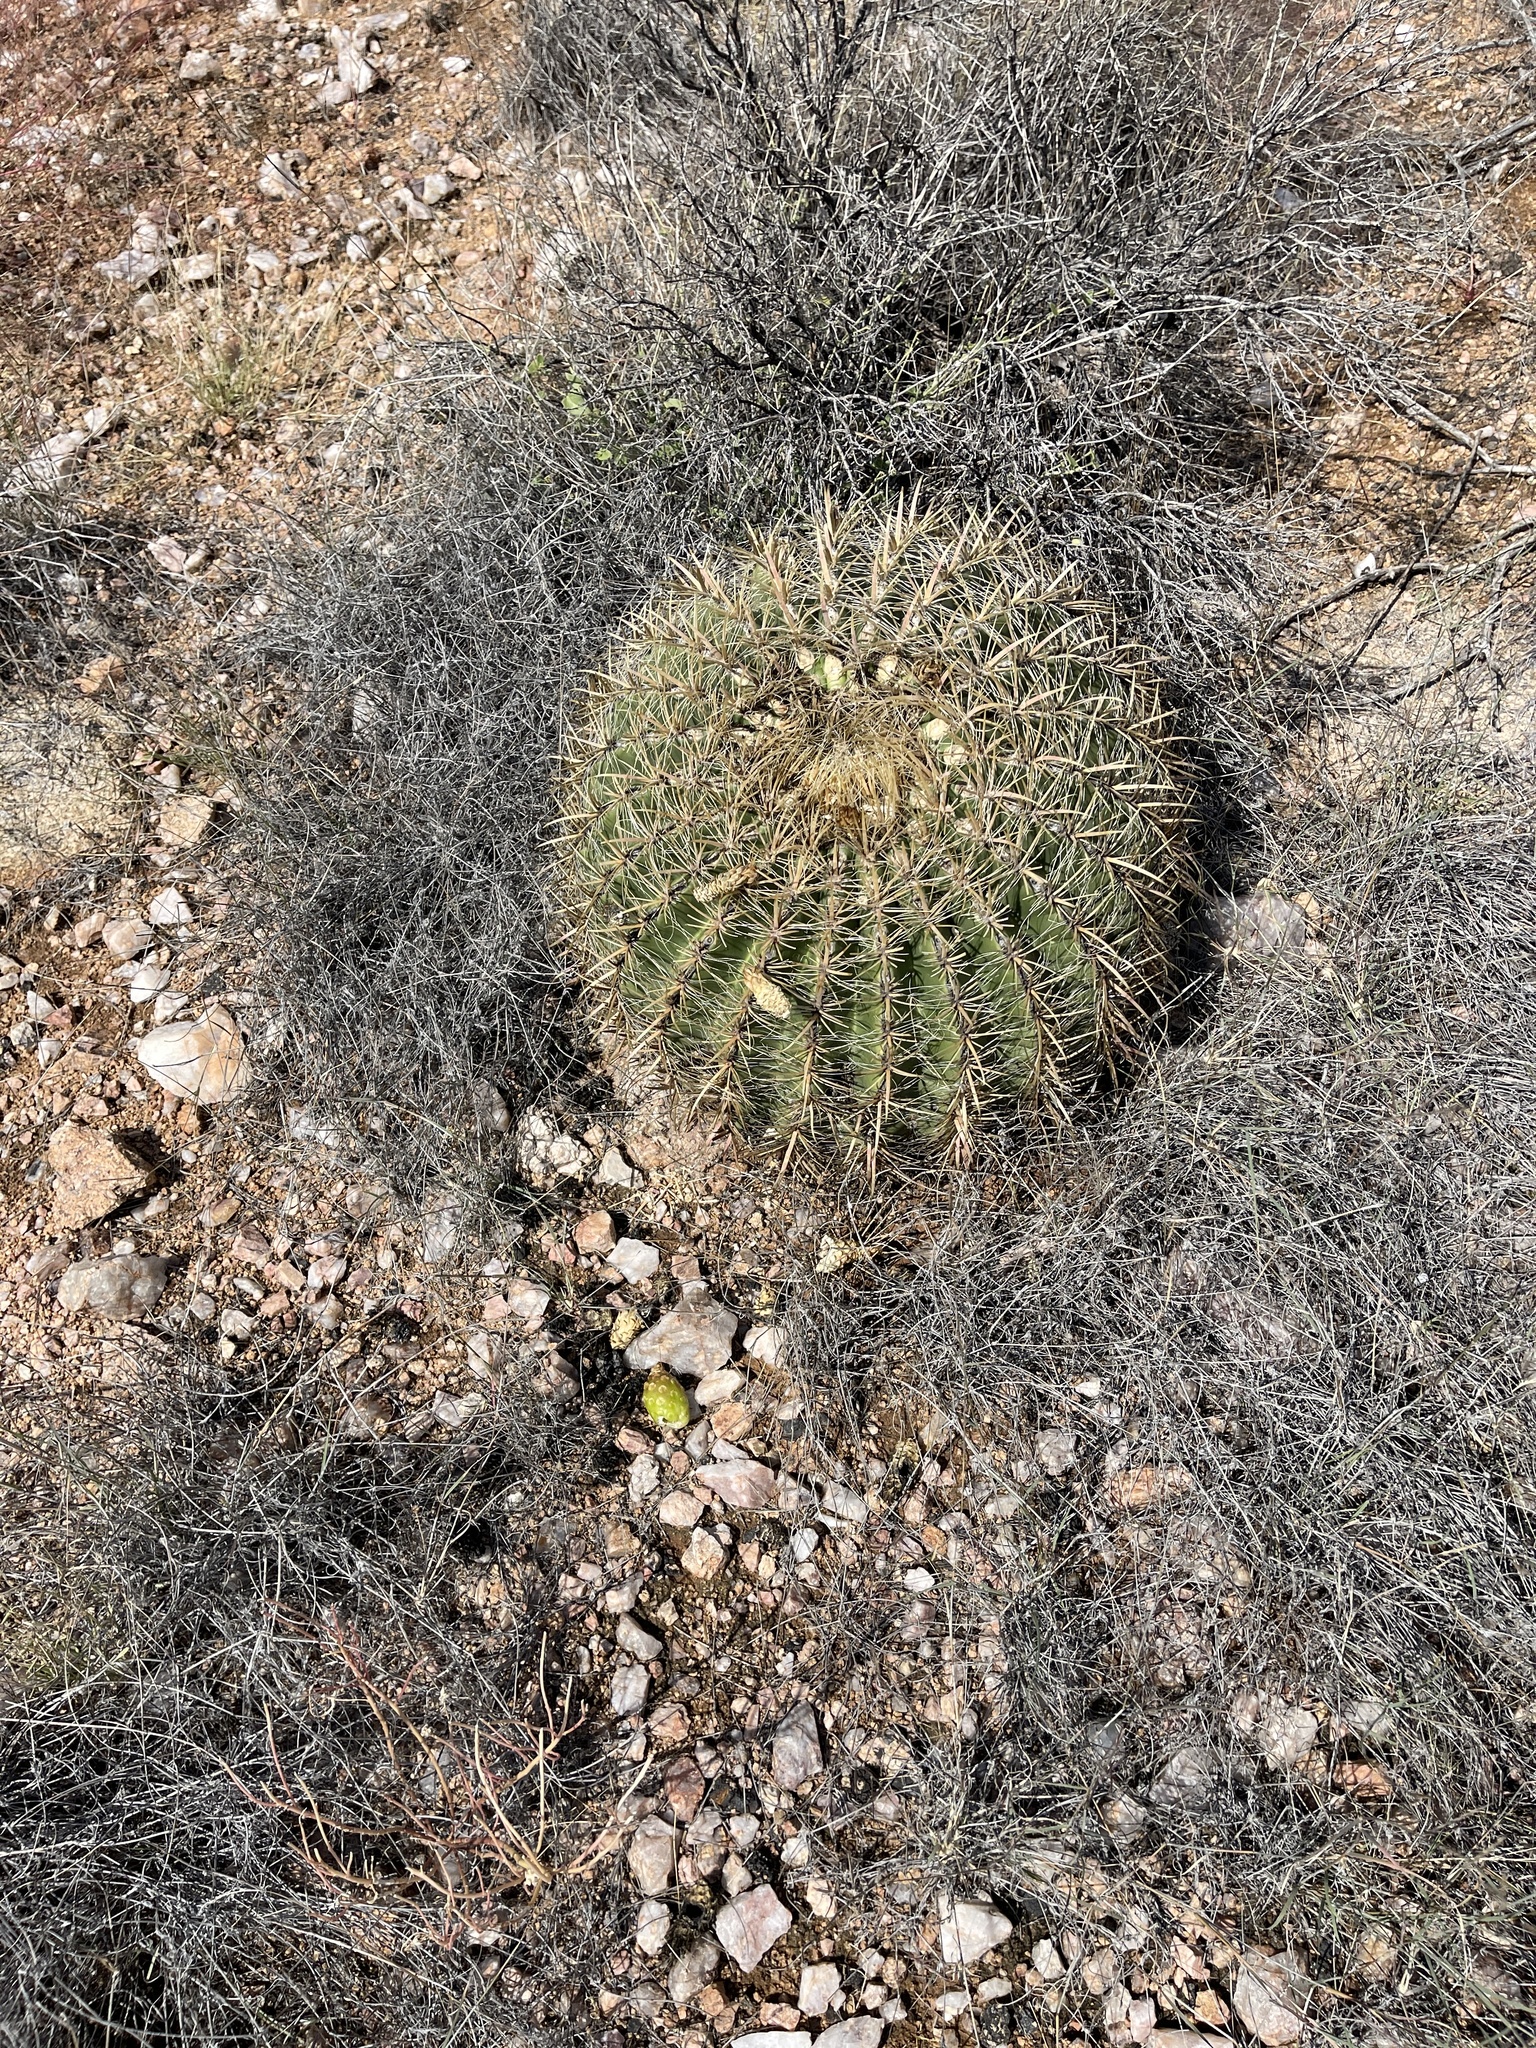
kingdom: Plantae
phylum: Tracheophyta
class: Magnoliopsida
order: Caryophyllales
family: Cactaceae
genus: Ferocactus
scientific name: Ferocactus cylindraceus
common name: California barrel cactus
